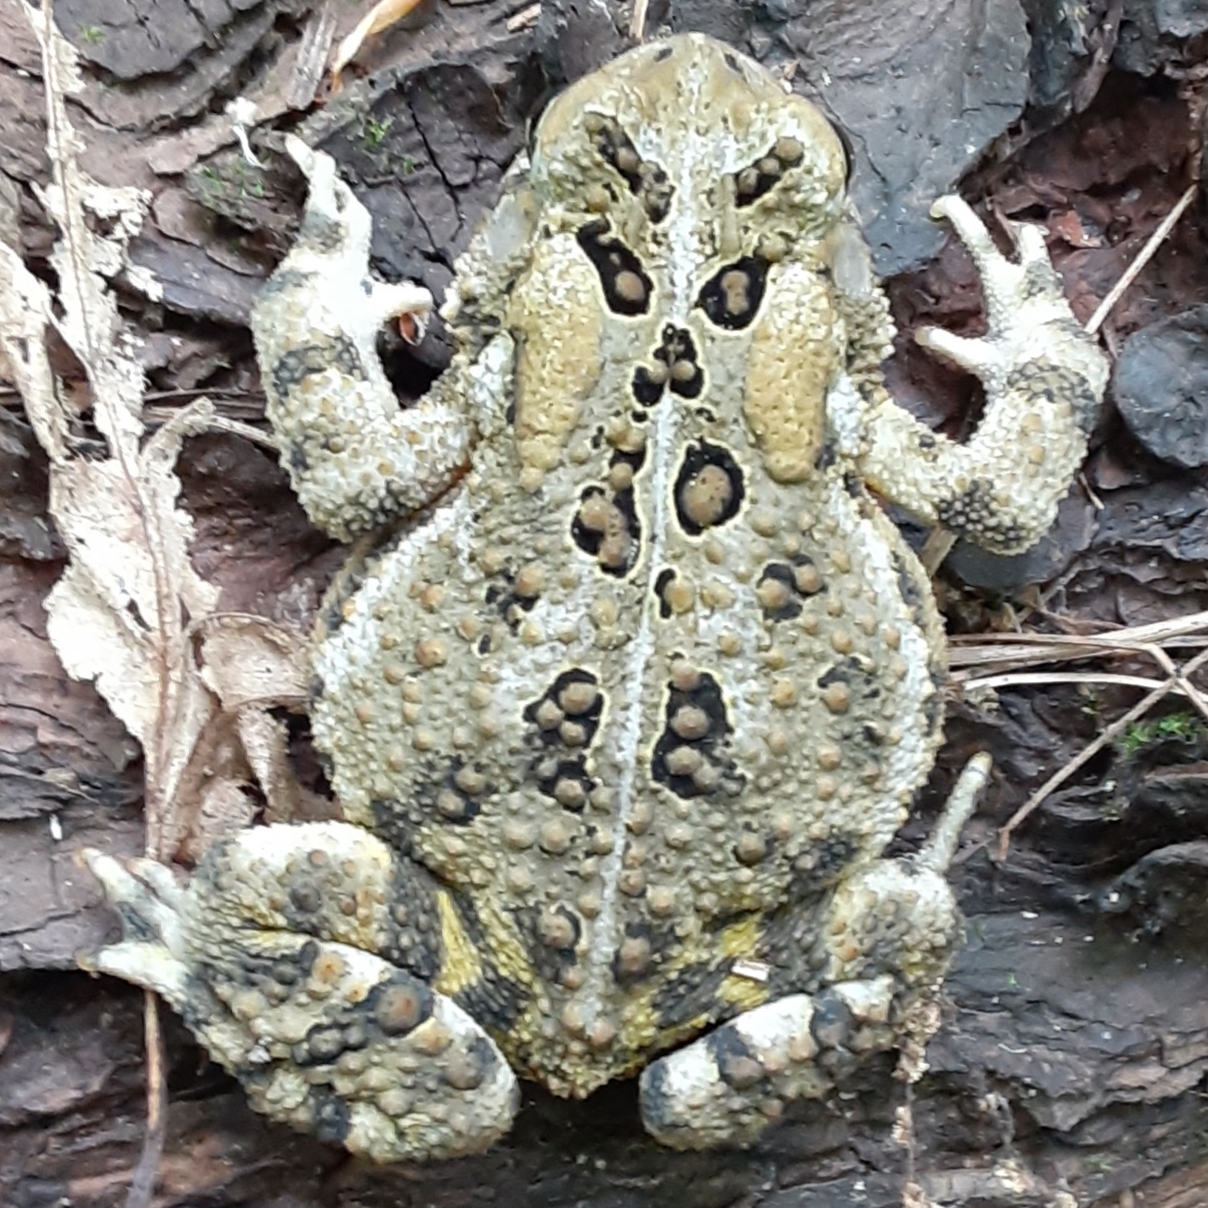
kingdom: Animalia
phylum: Chordata
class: Amphibia
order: Anura
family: Bufonidae
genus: Anaxyrus
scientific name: Anaxyrus americanus
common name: American toad
